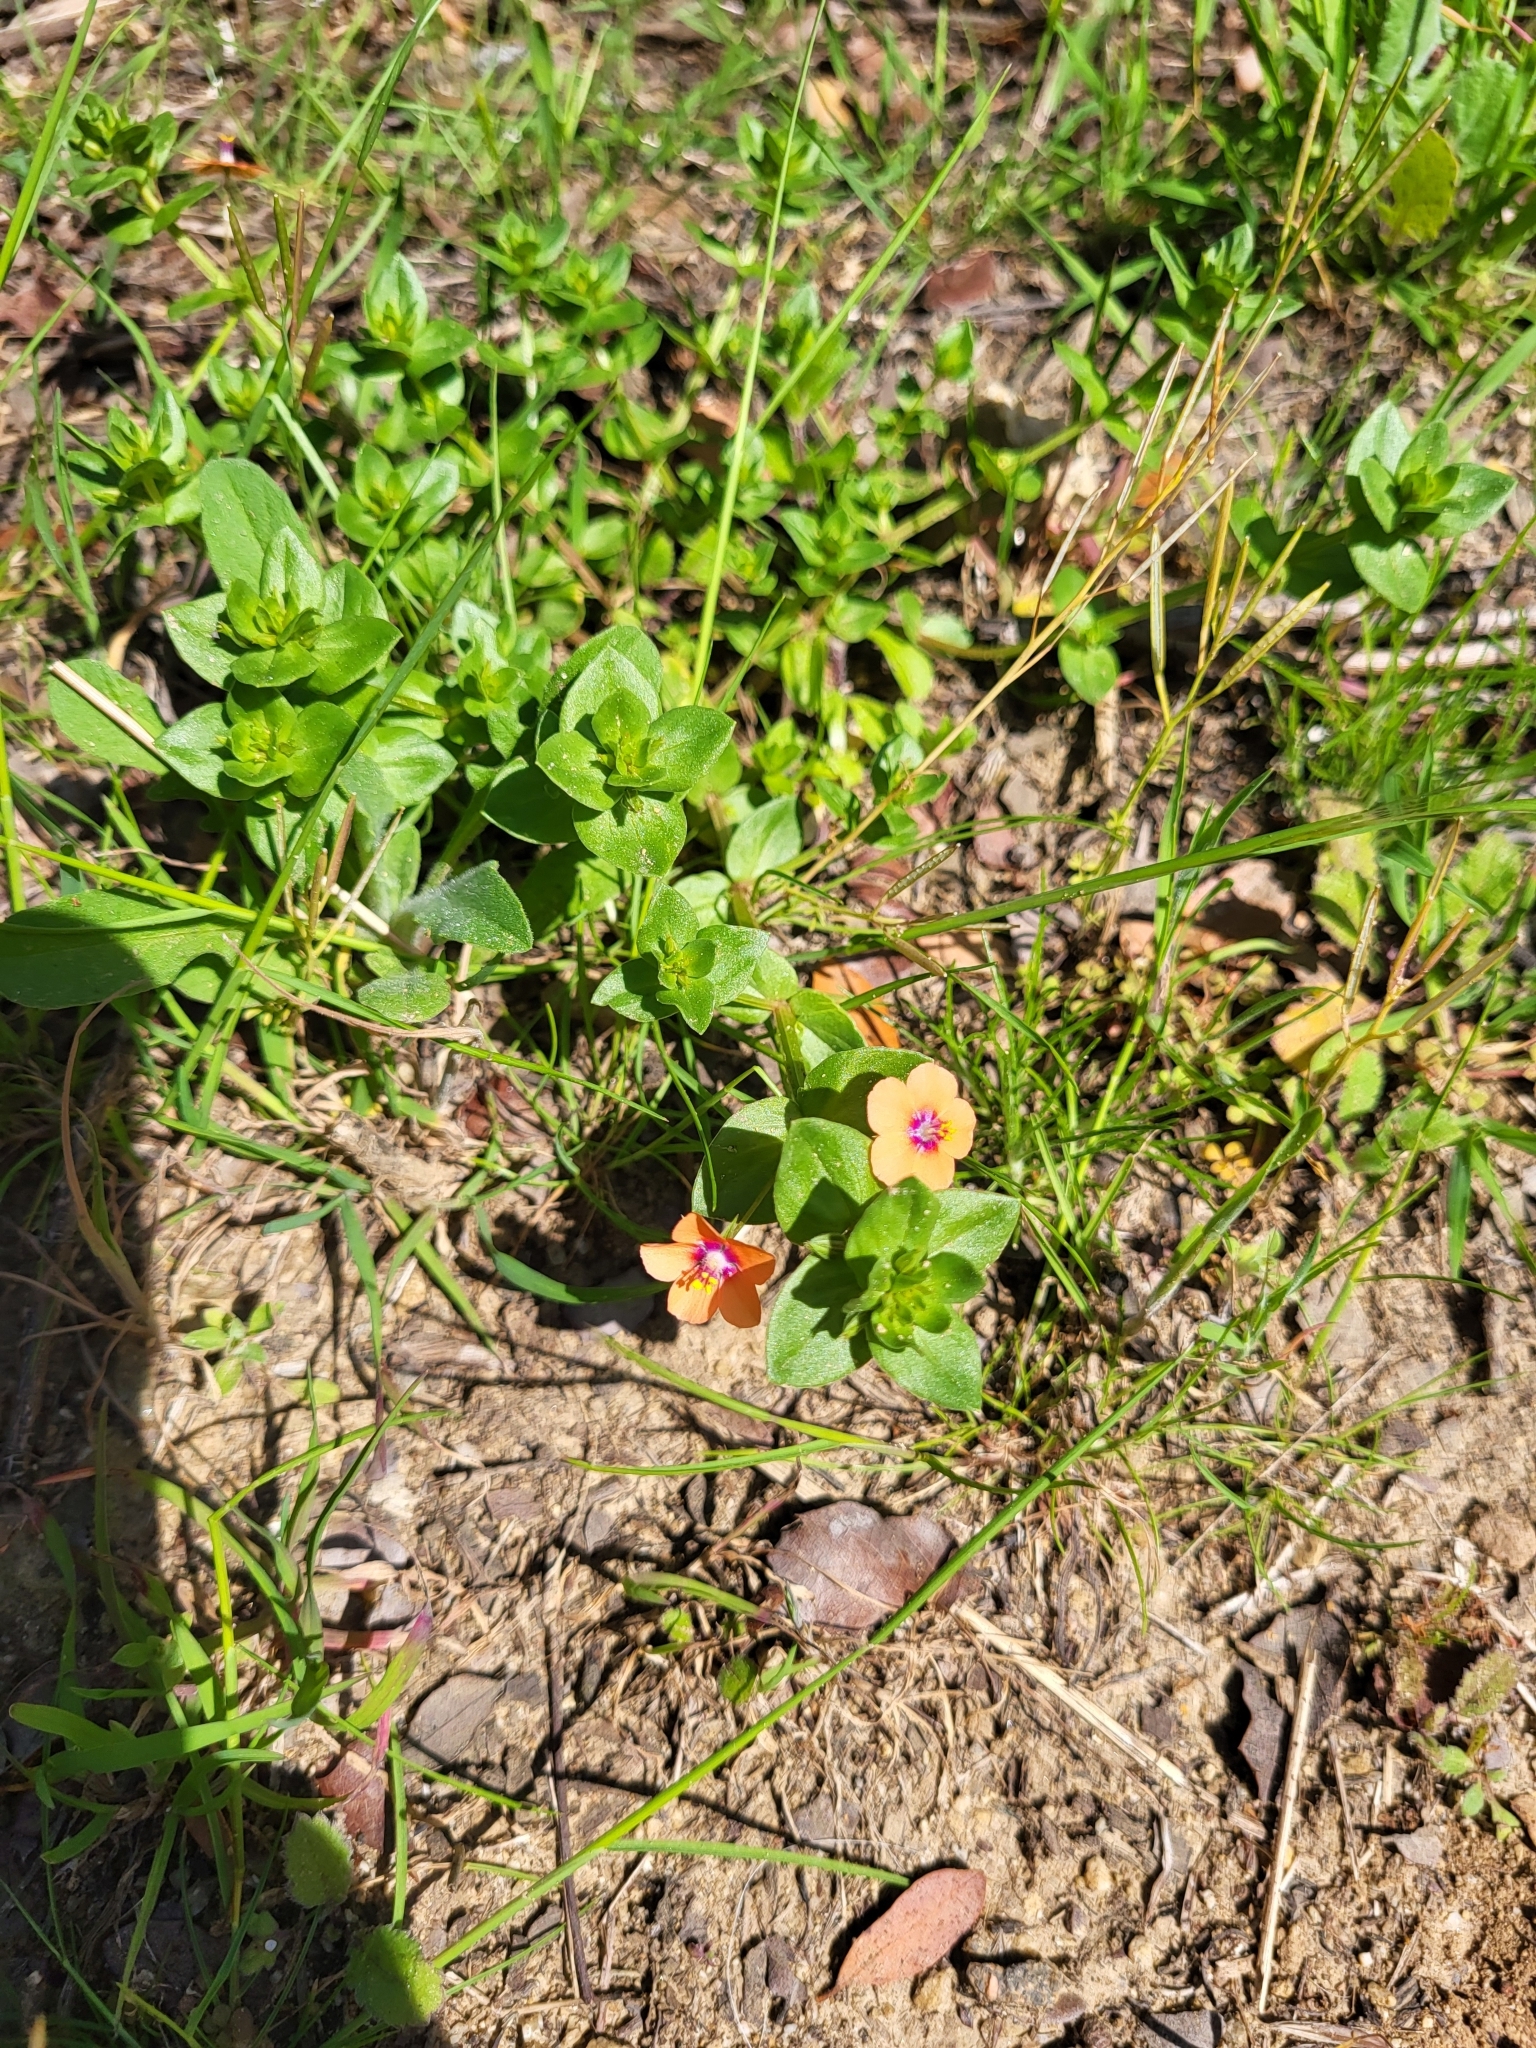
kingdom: Plantae
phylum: Tracheophyta
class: Magnoliopsida
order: Ericales
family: Primulaceae
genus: Lysimachia
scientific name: Lysimachia arvensis
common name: Scarlet pimpernel
